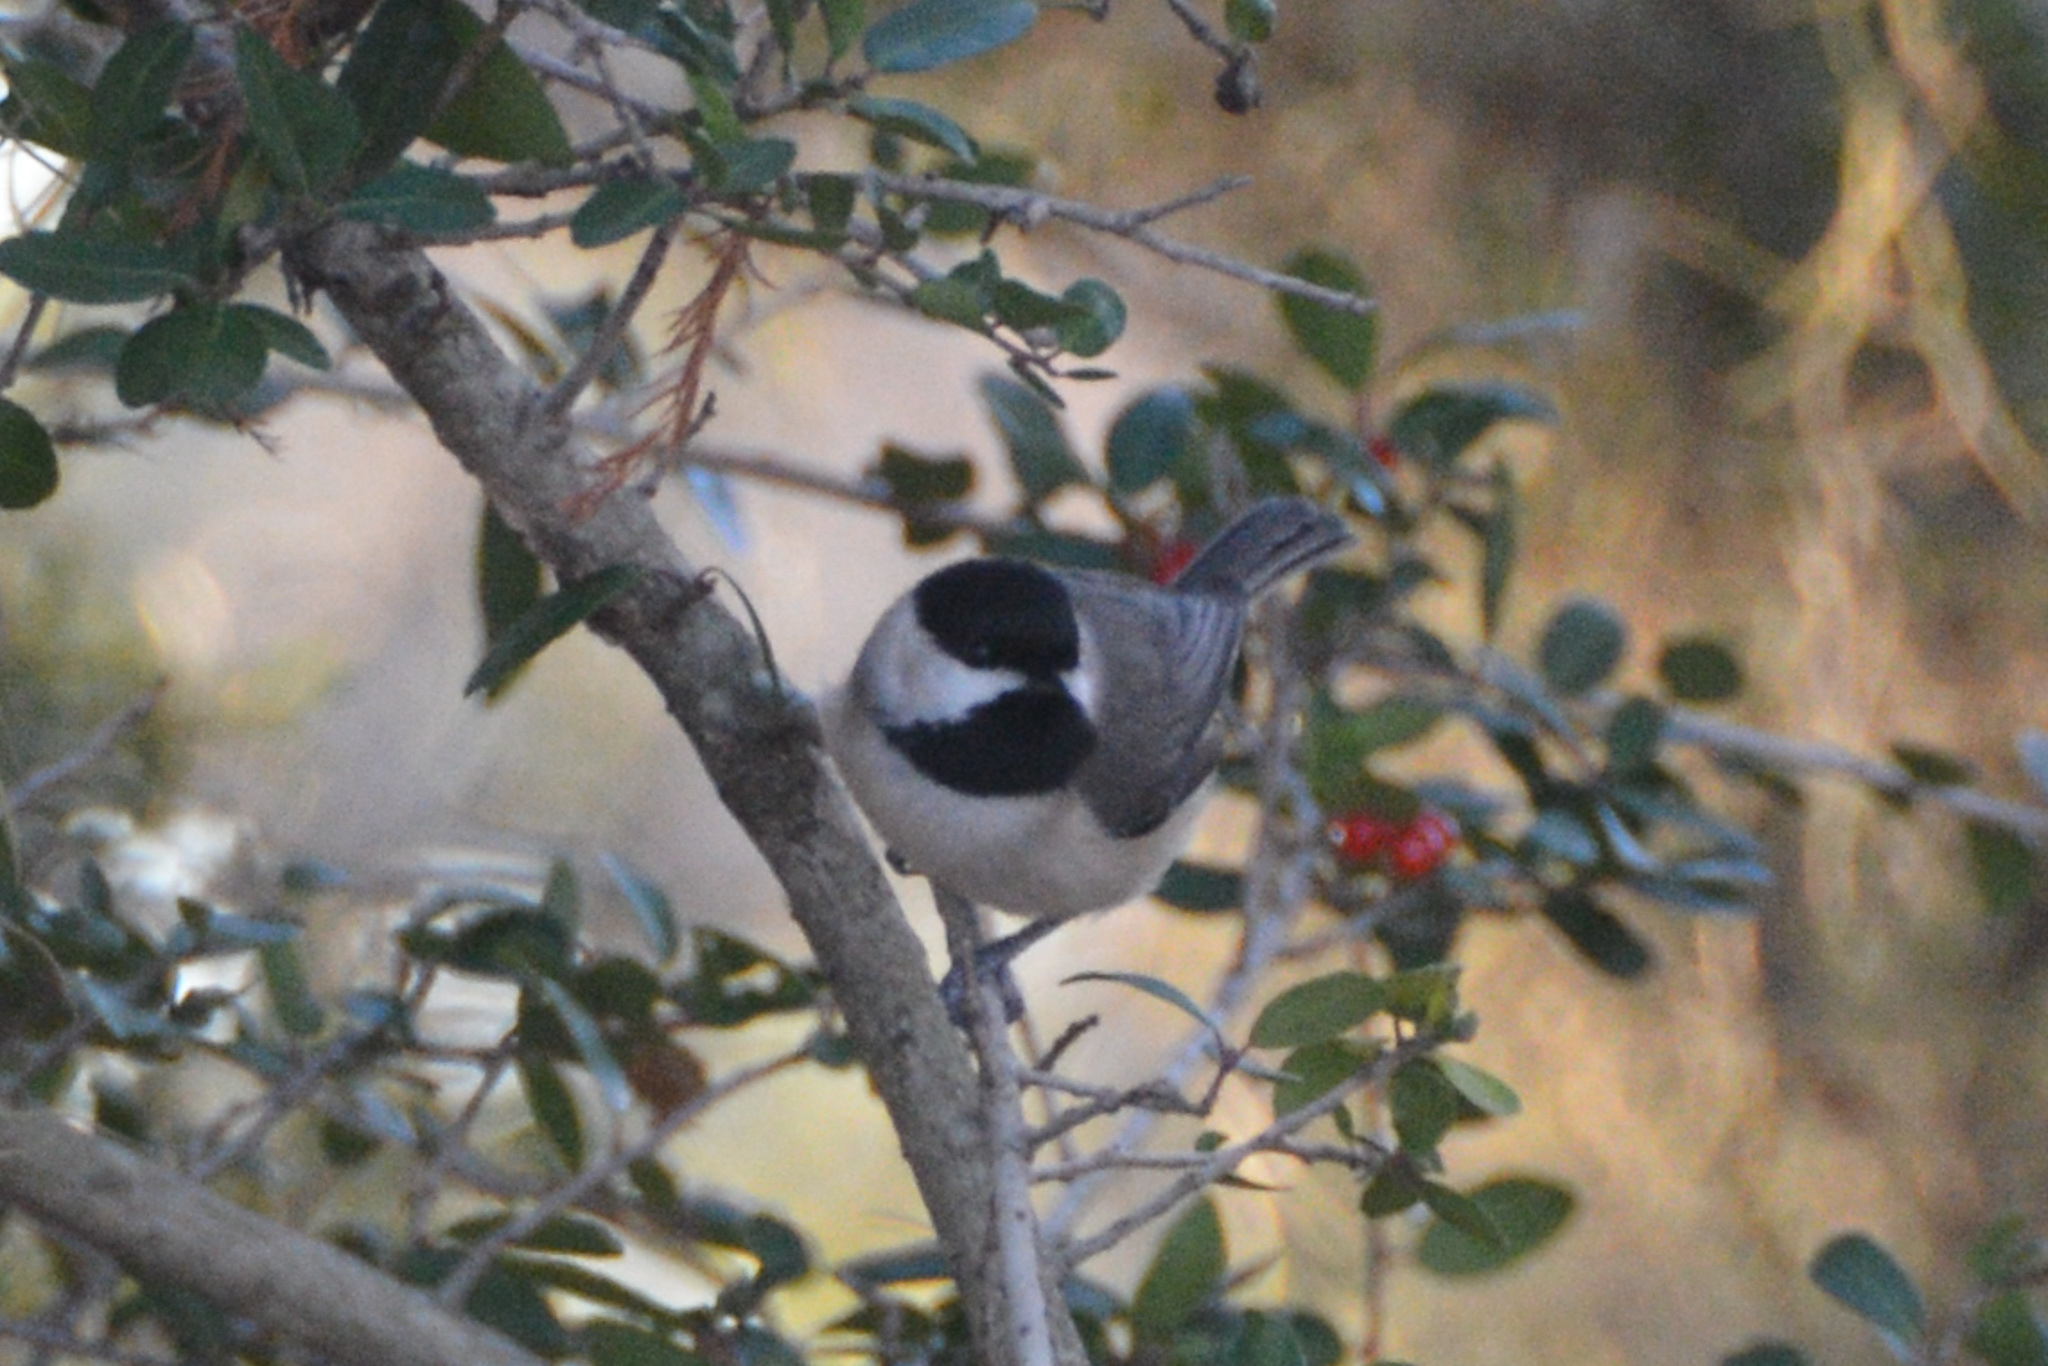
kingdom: Animalia
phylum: Chordata
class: Aves
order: Passeriformes
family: Paridae
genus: Poecile
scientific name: Poecile carolinensis
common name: Carolina chickadee
